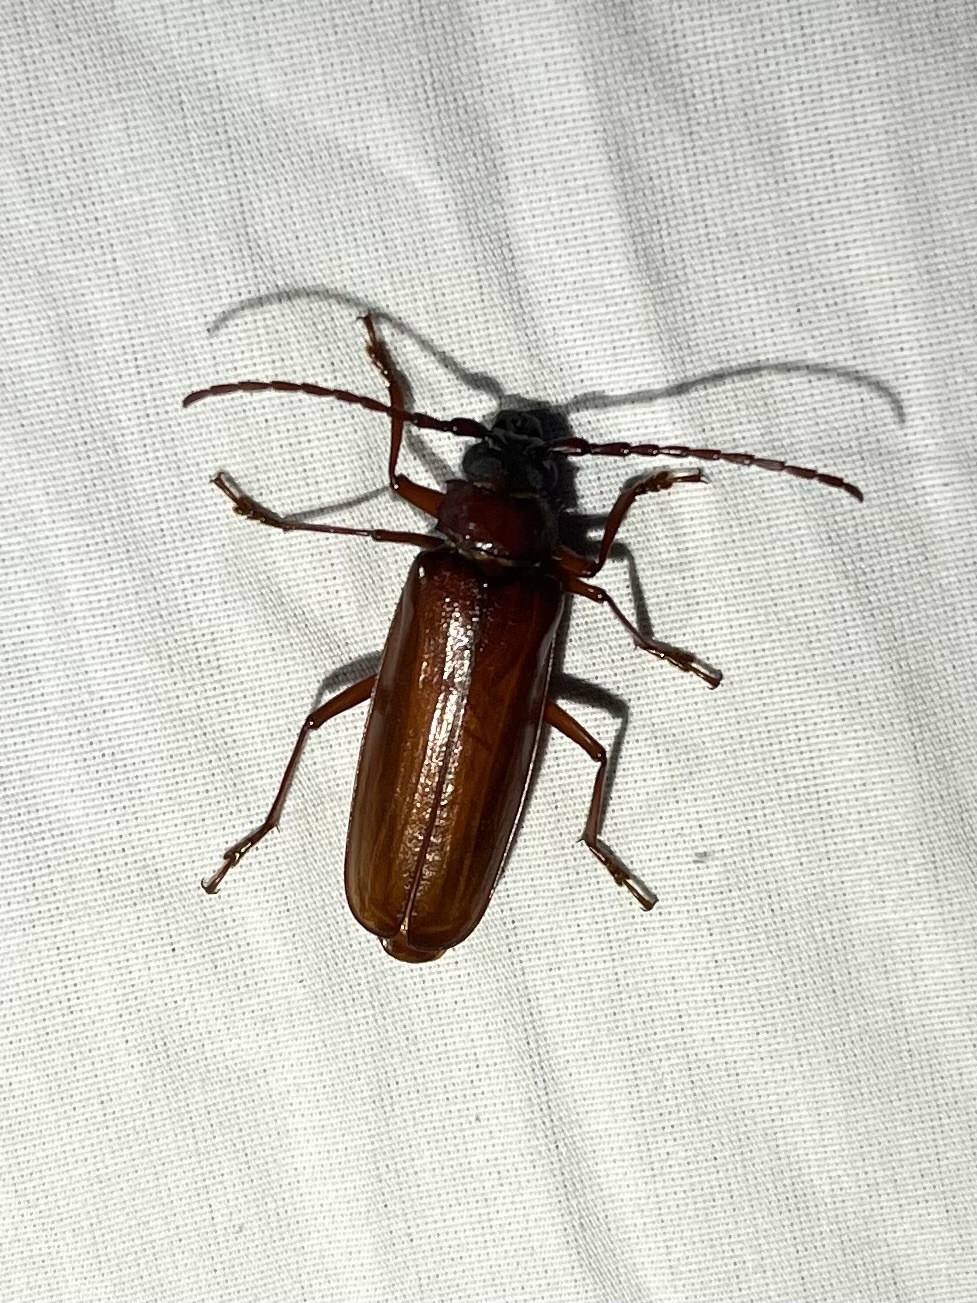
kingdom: Animalia
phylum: Arthropoda
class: Insecta
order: Coleoptera
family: Cerambycidae
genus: Orthosoma
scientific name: Orthosoma brunneum
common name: Brown prionid beetle
